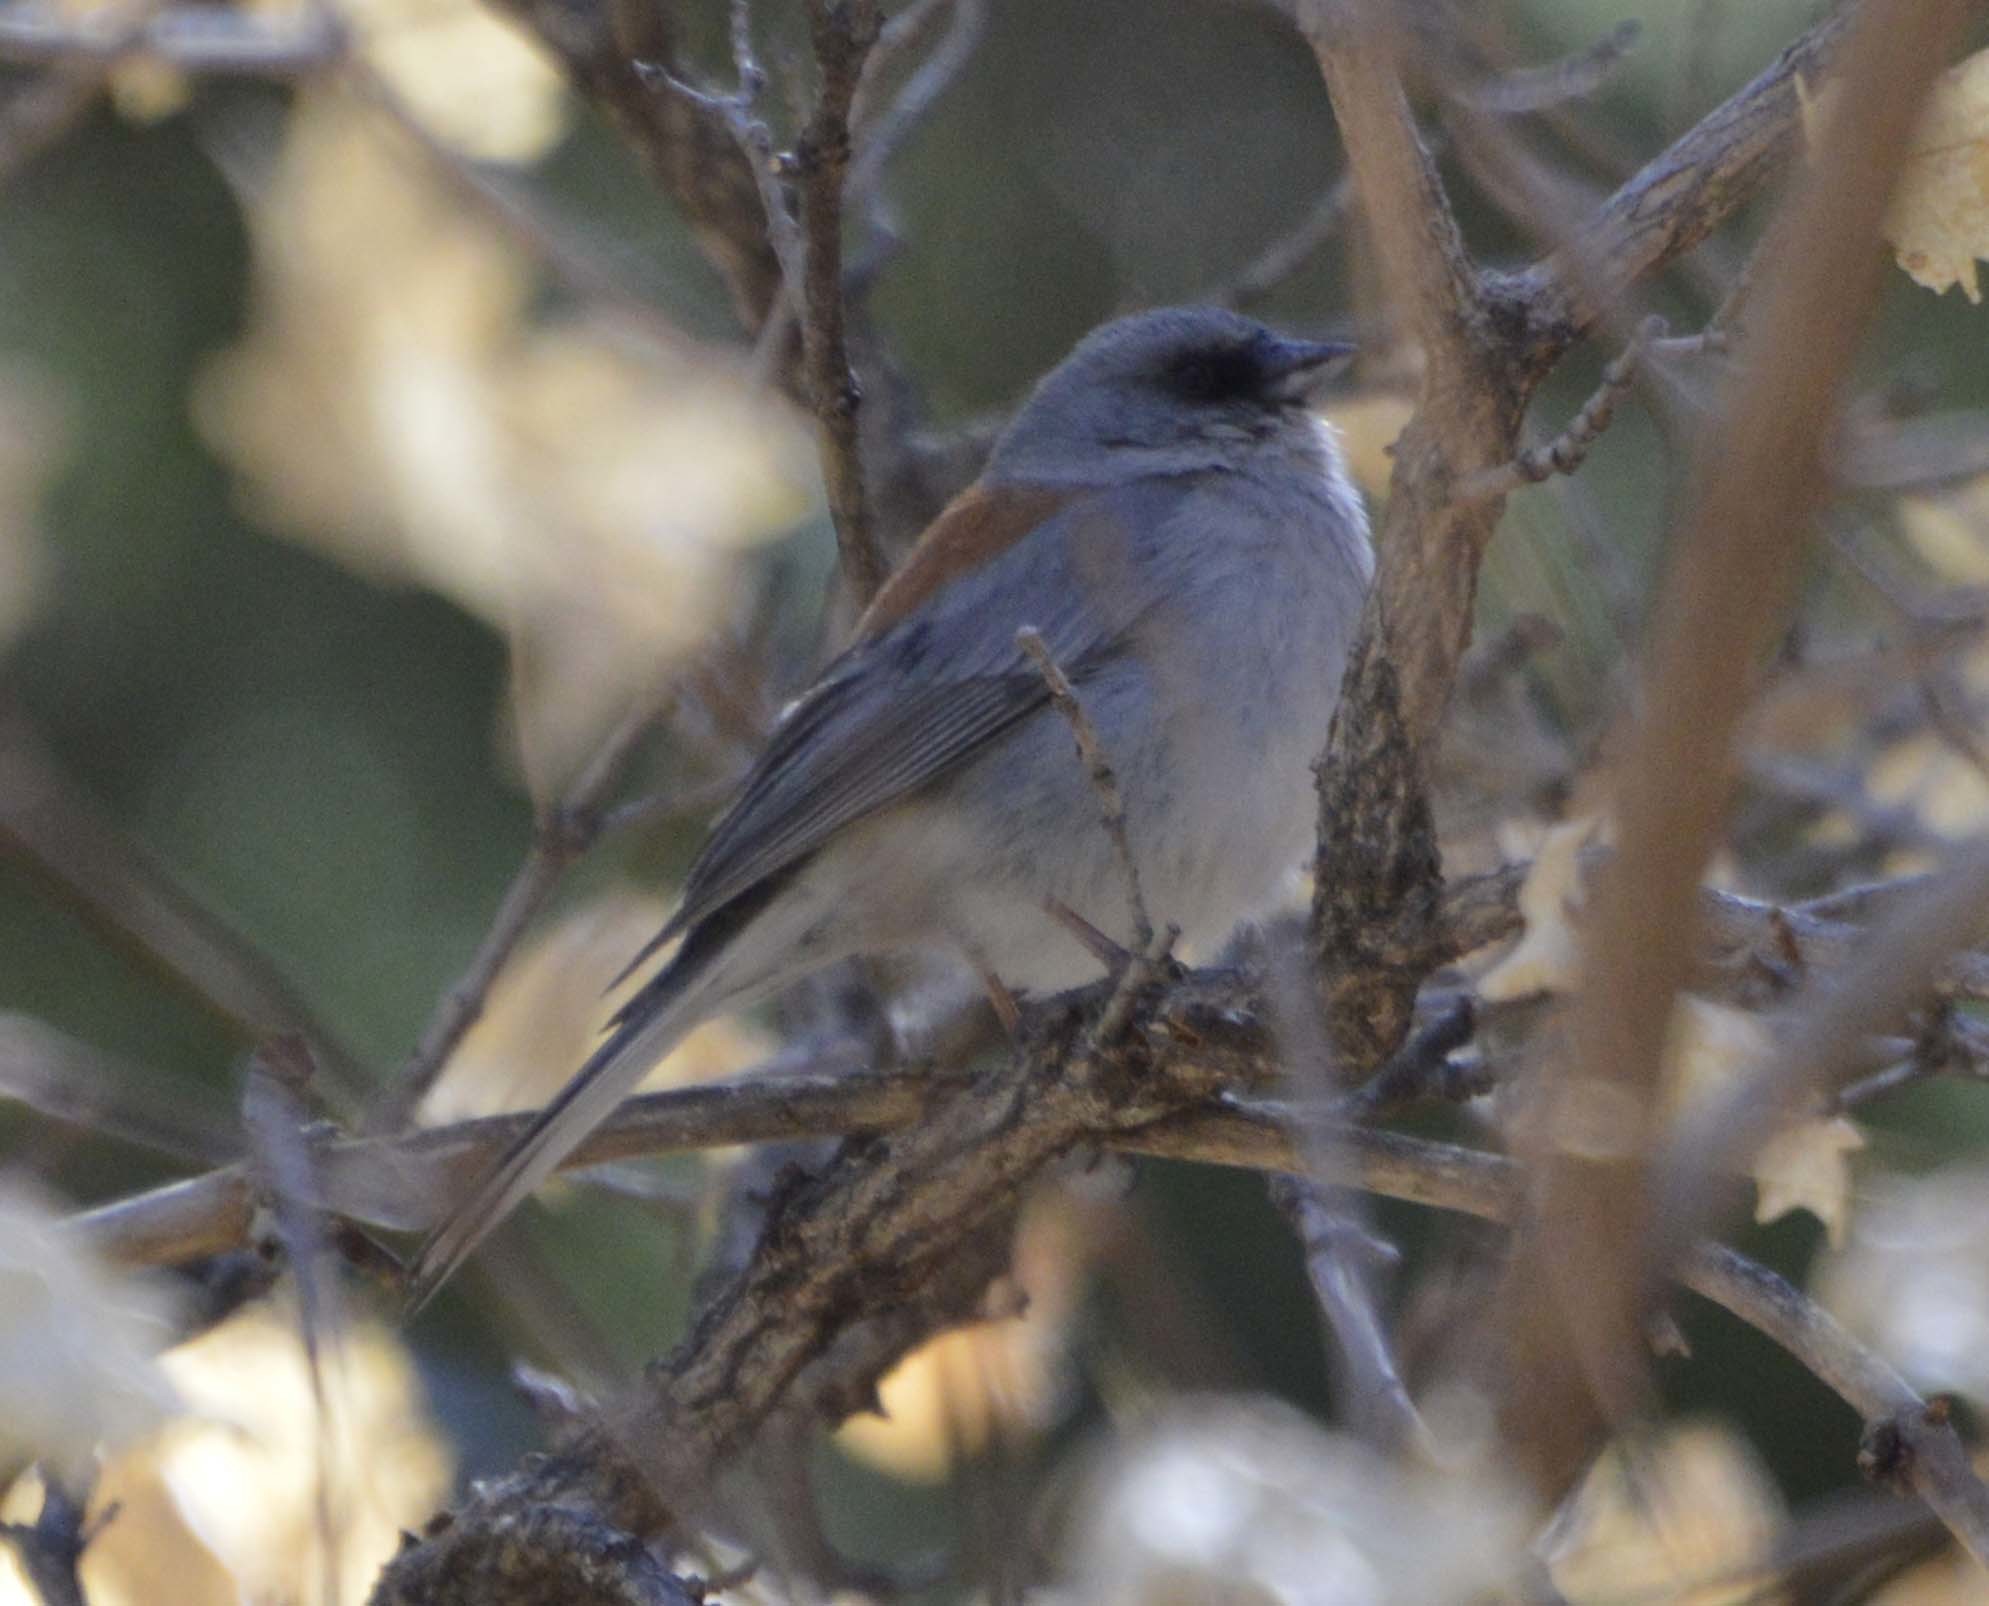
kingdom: Animalia
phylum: Chordata
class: Aves
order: Passeriformes
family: Passerellidae
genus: Junco
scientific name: Junco hyemalis
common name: Dark-eyed junco
